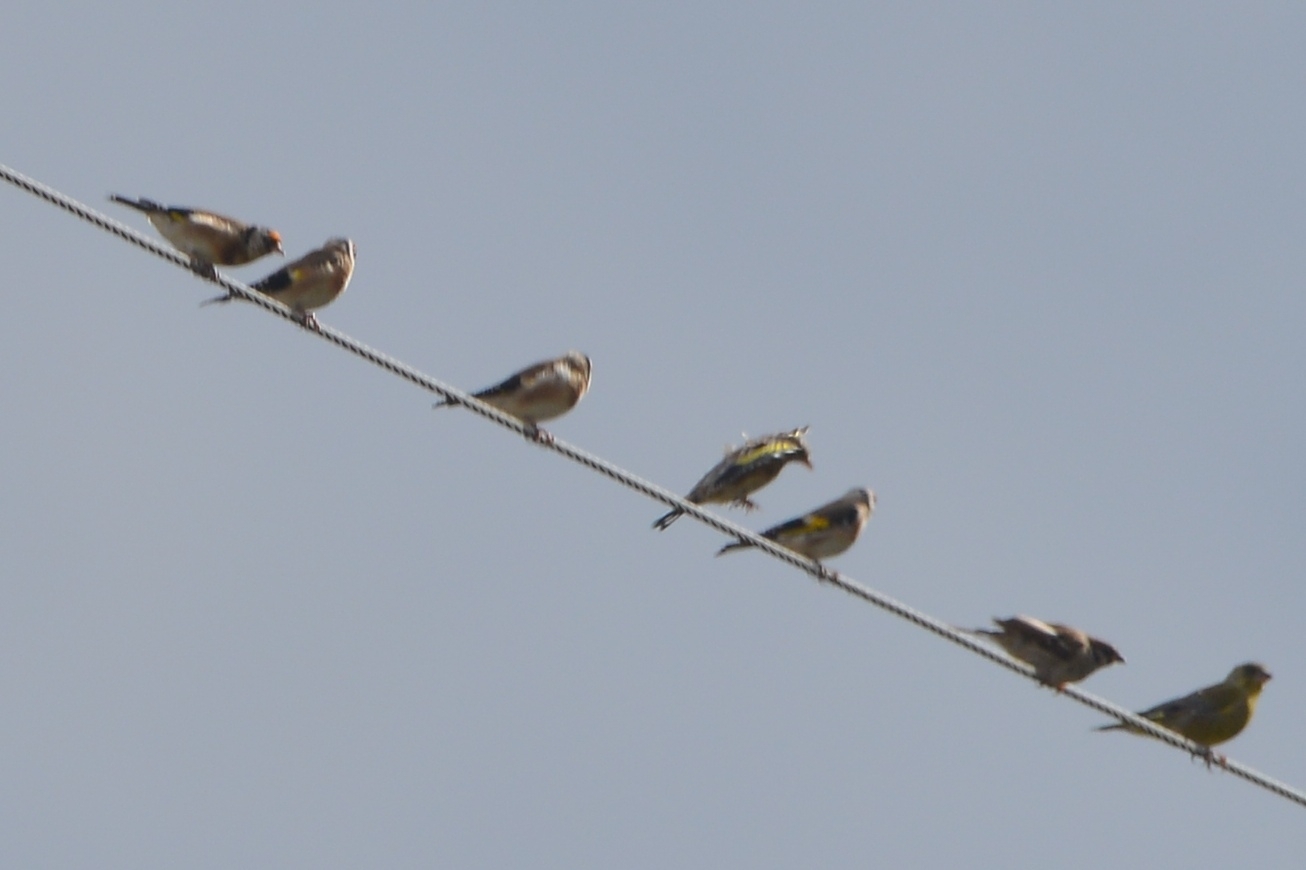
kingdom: Animalia
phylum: Chordata
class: Aves
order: Passeriformes
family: Fringillidae
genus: Carduelis
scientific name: Carduelis carduelis
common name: European goldfinch
